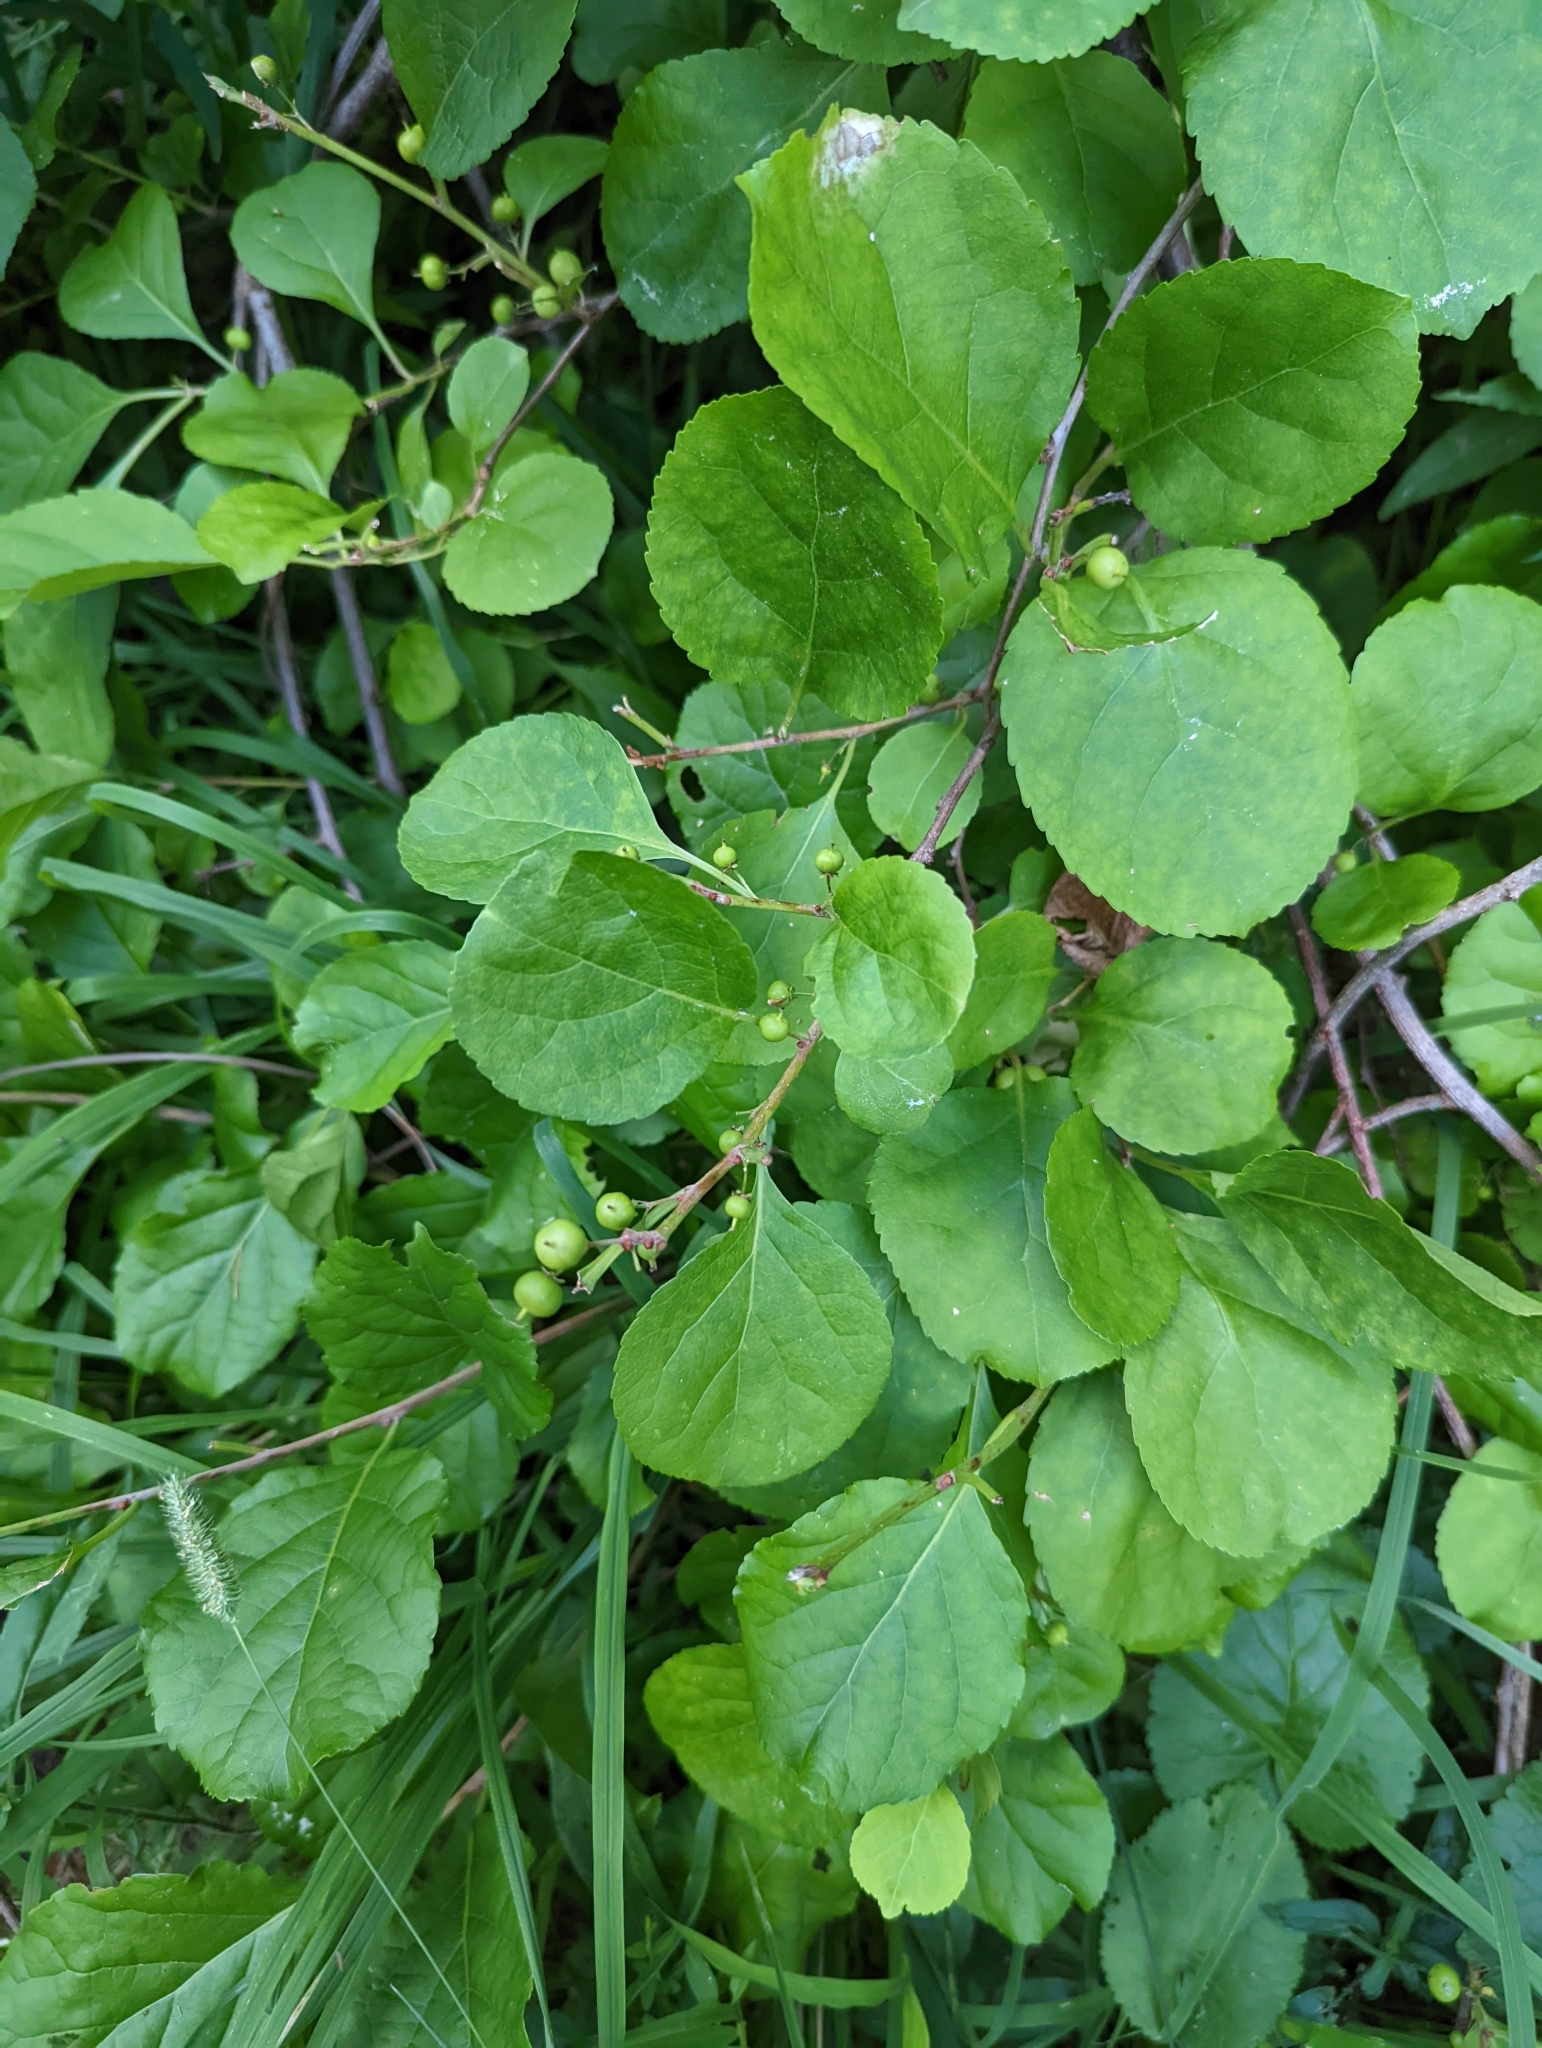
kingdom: Plantae
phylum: Tracheophyta
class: Magnoliopsida
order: Celastrales
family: Celastraceae
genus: Celastrus
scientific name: Celastrus orbiculatus
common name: Oriental bittersweet
